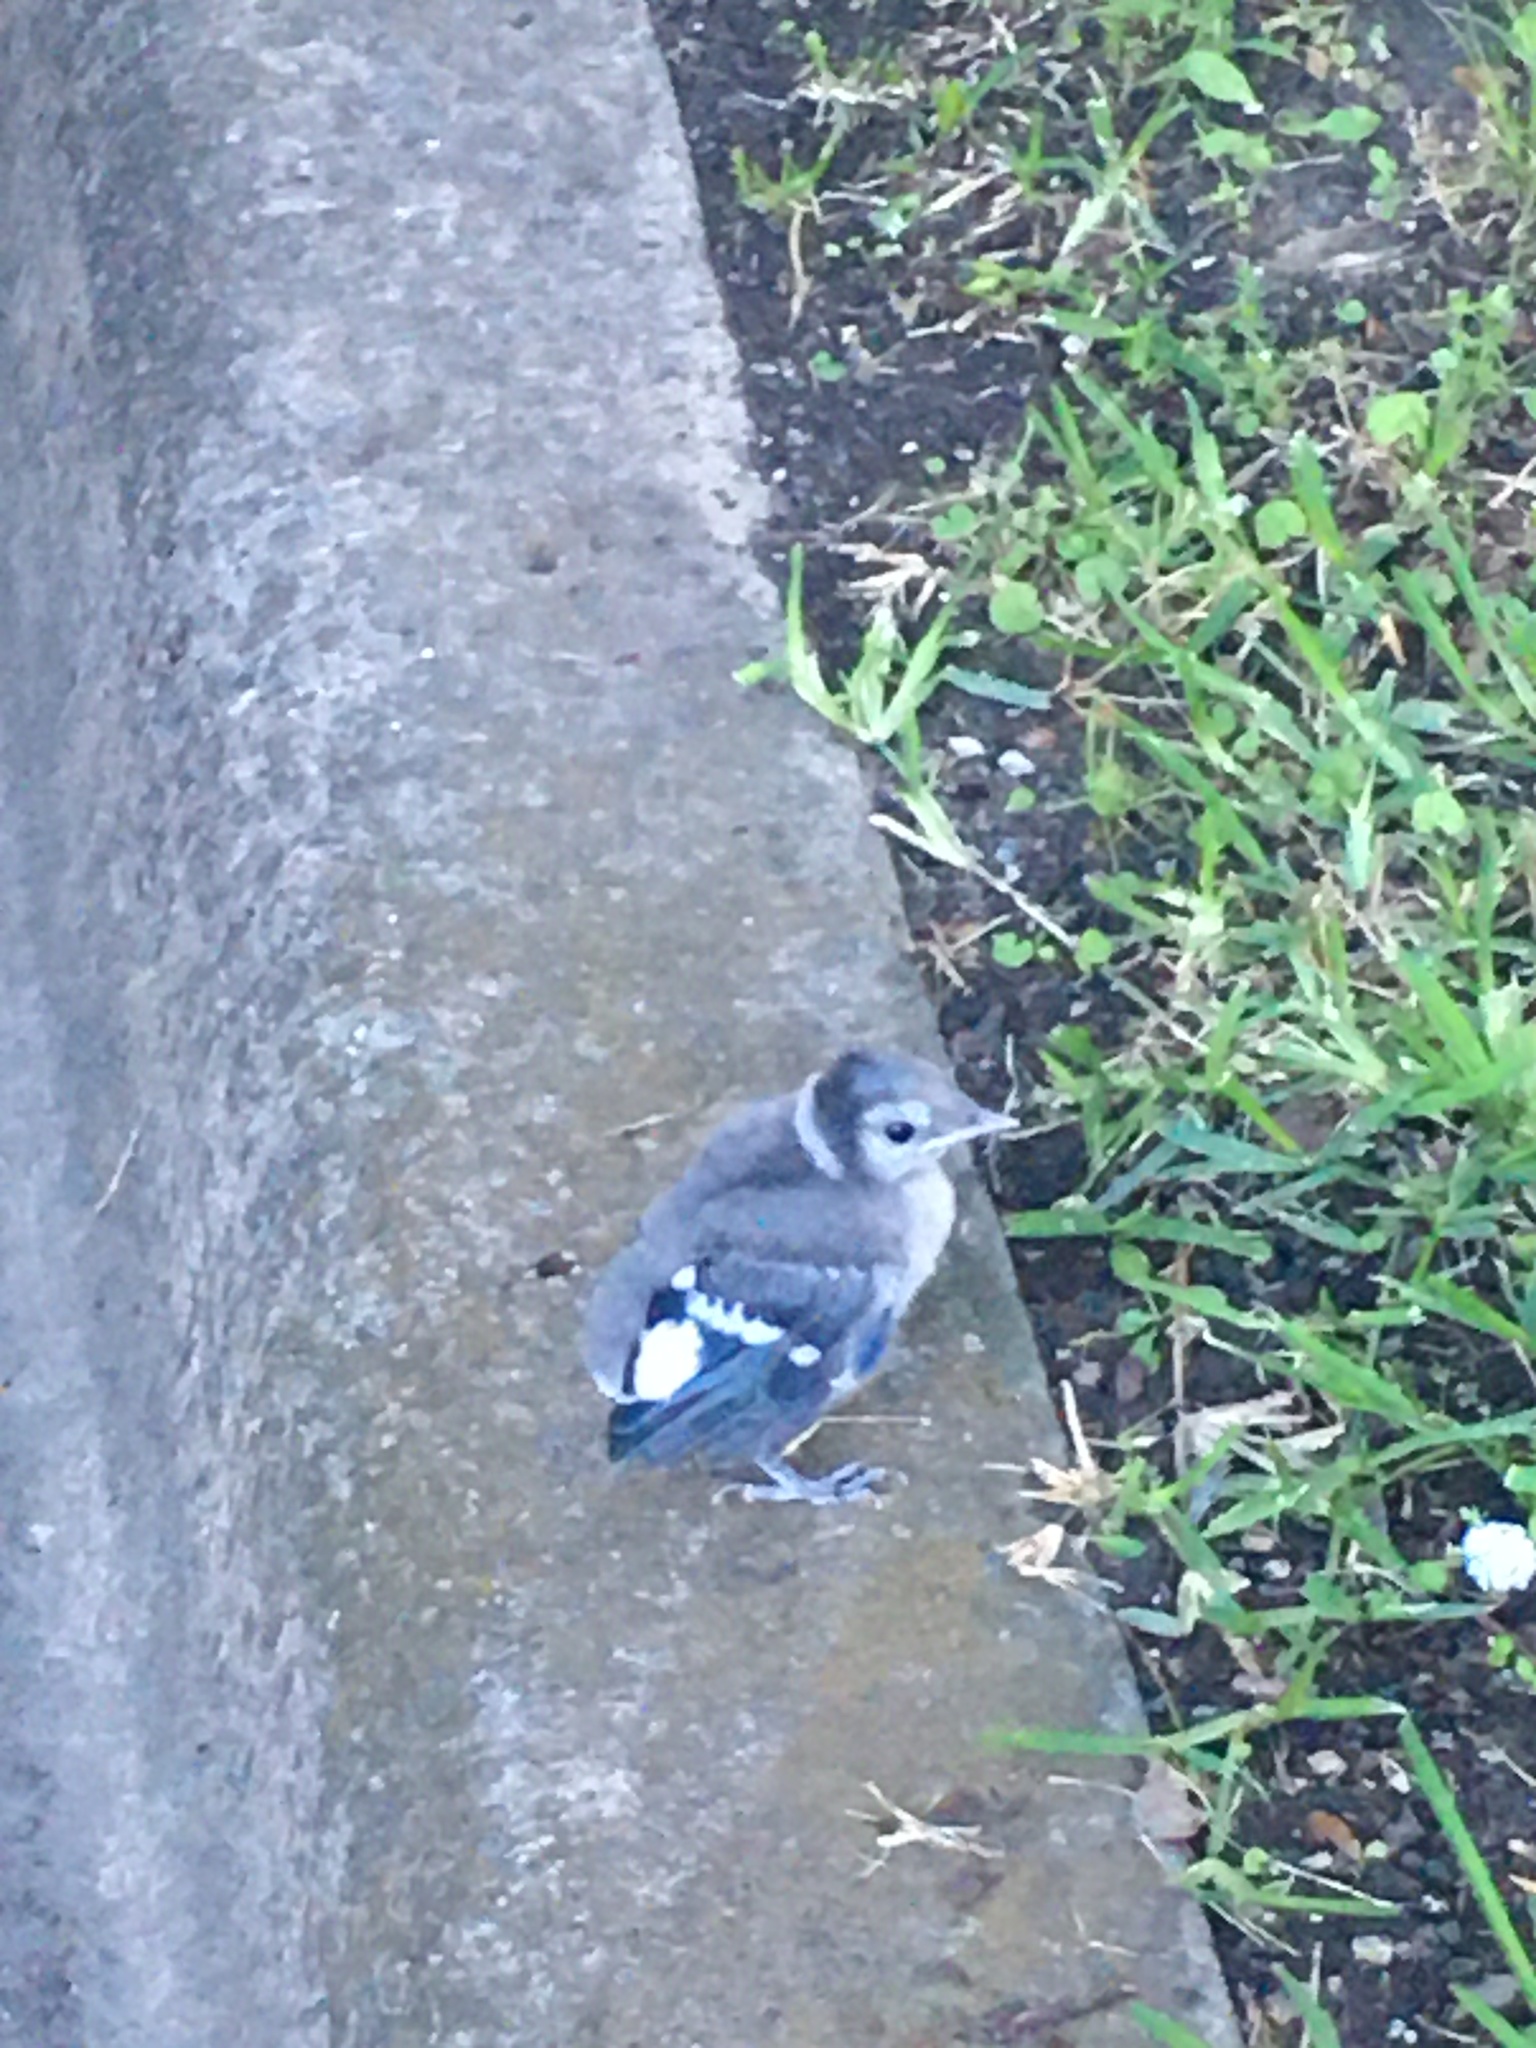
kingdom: Animalia
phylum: Chordata
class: Aves
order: Passeriformes
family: Corvidae
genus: Cyanocitta
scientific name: Cyanocitta cristata
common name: Blue jay
